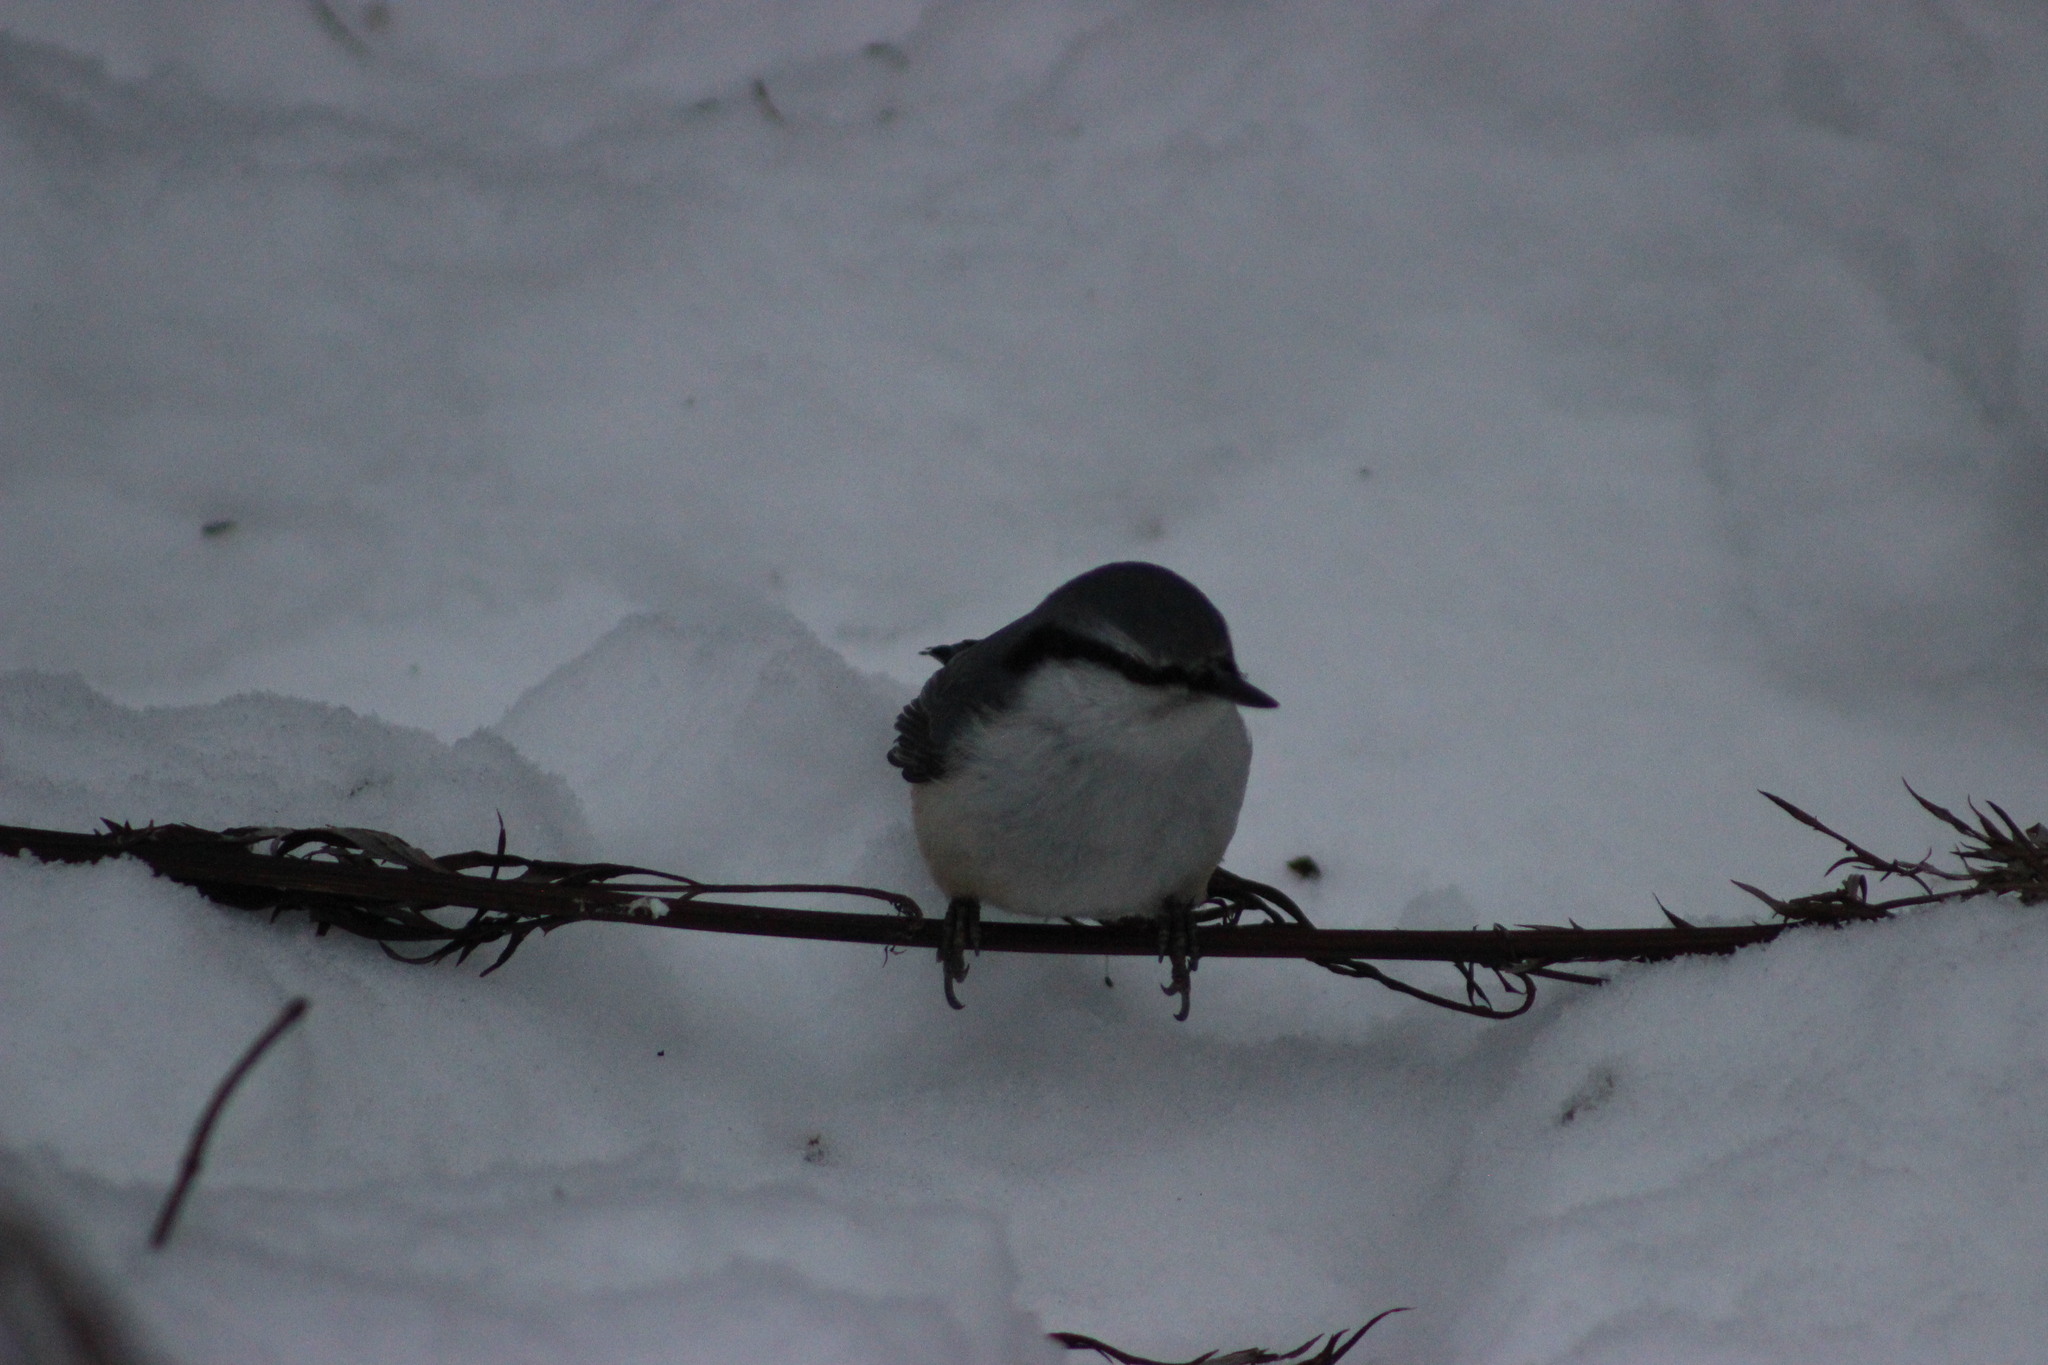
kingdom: Animalia
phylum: Chordata
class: Aves
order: Passeriformes
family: Sittidae
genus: Sitta
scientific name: Sitta europaea
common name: Eurasian nuthatch
